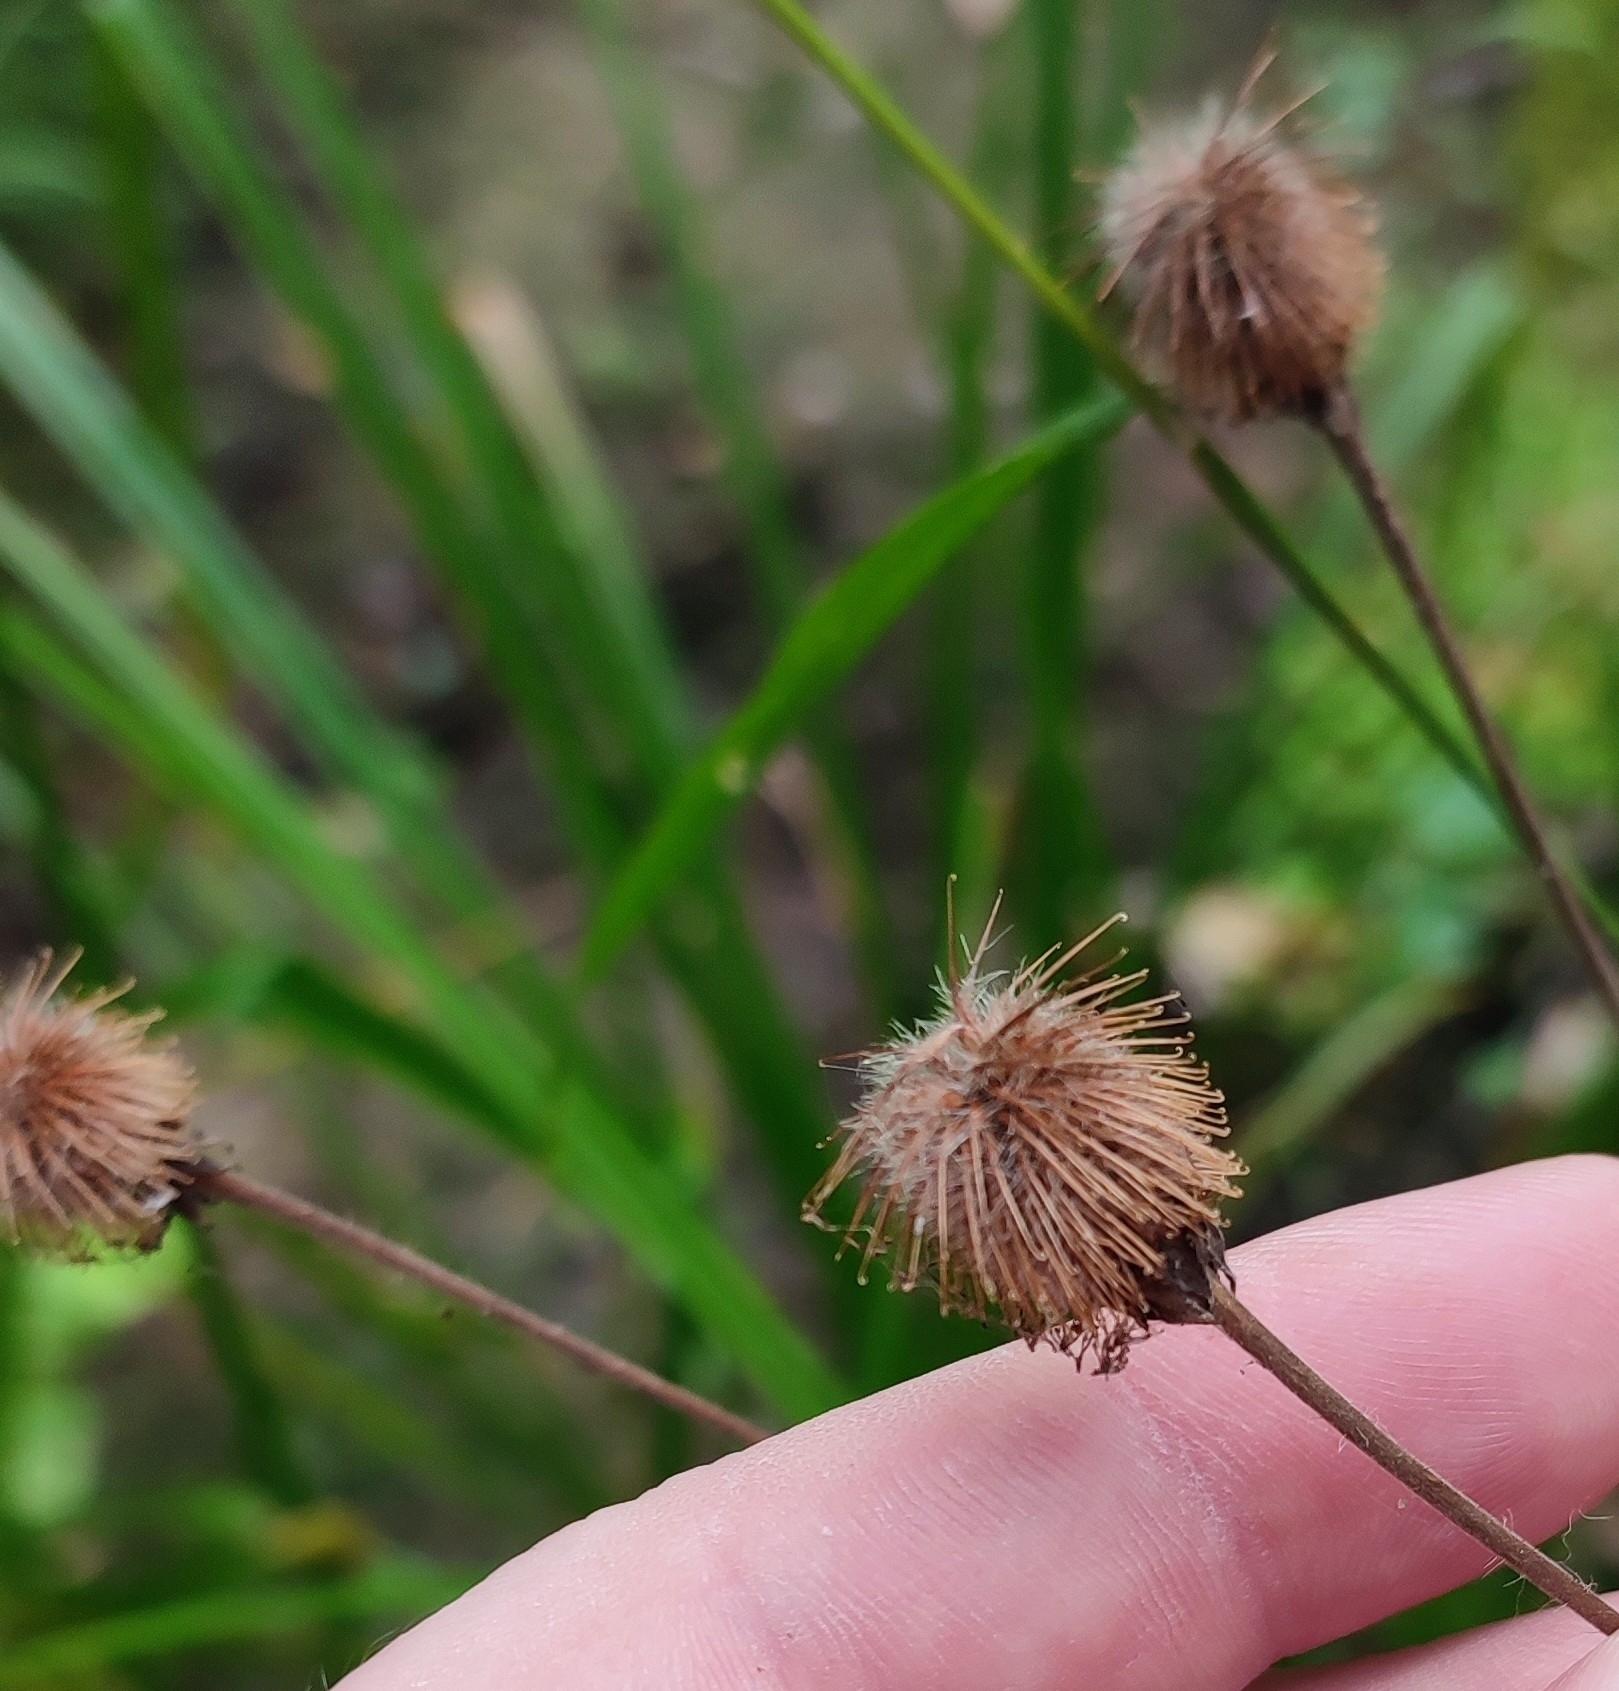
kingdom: Plantae
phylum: Tracheophyta
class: Magnoliopsida
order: Rosales
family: Rosaceae
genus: Geum
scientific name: Geum aleppicum
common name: Yellow avens
